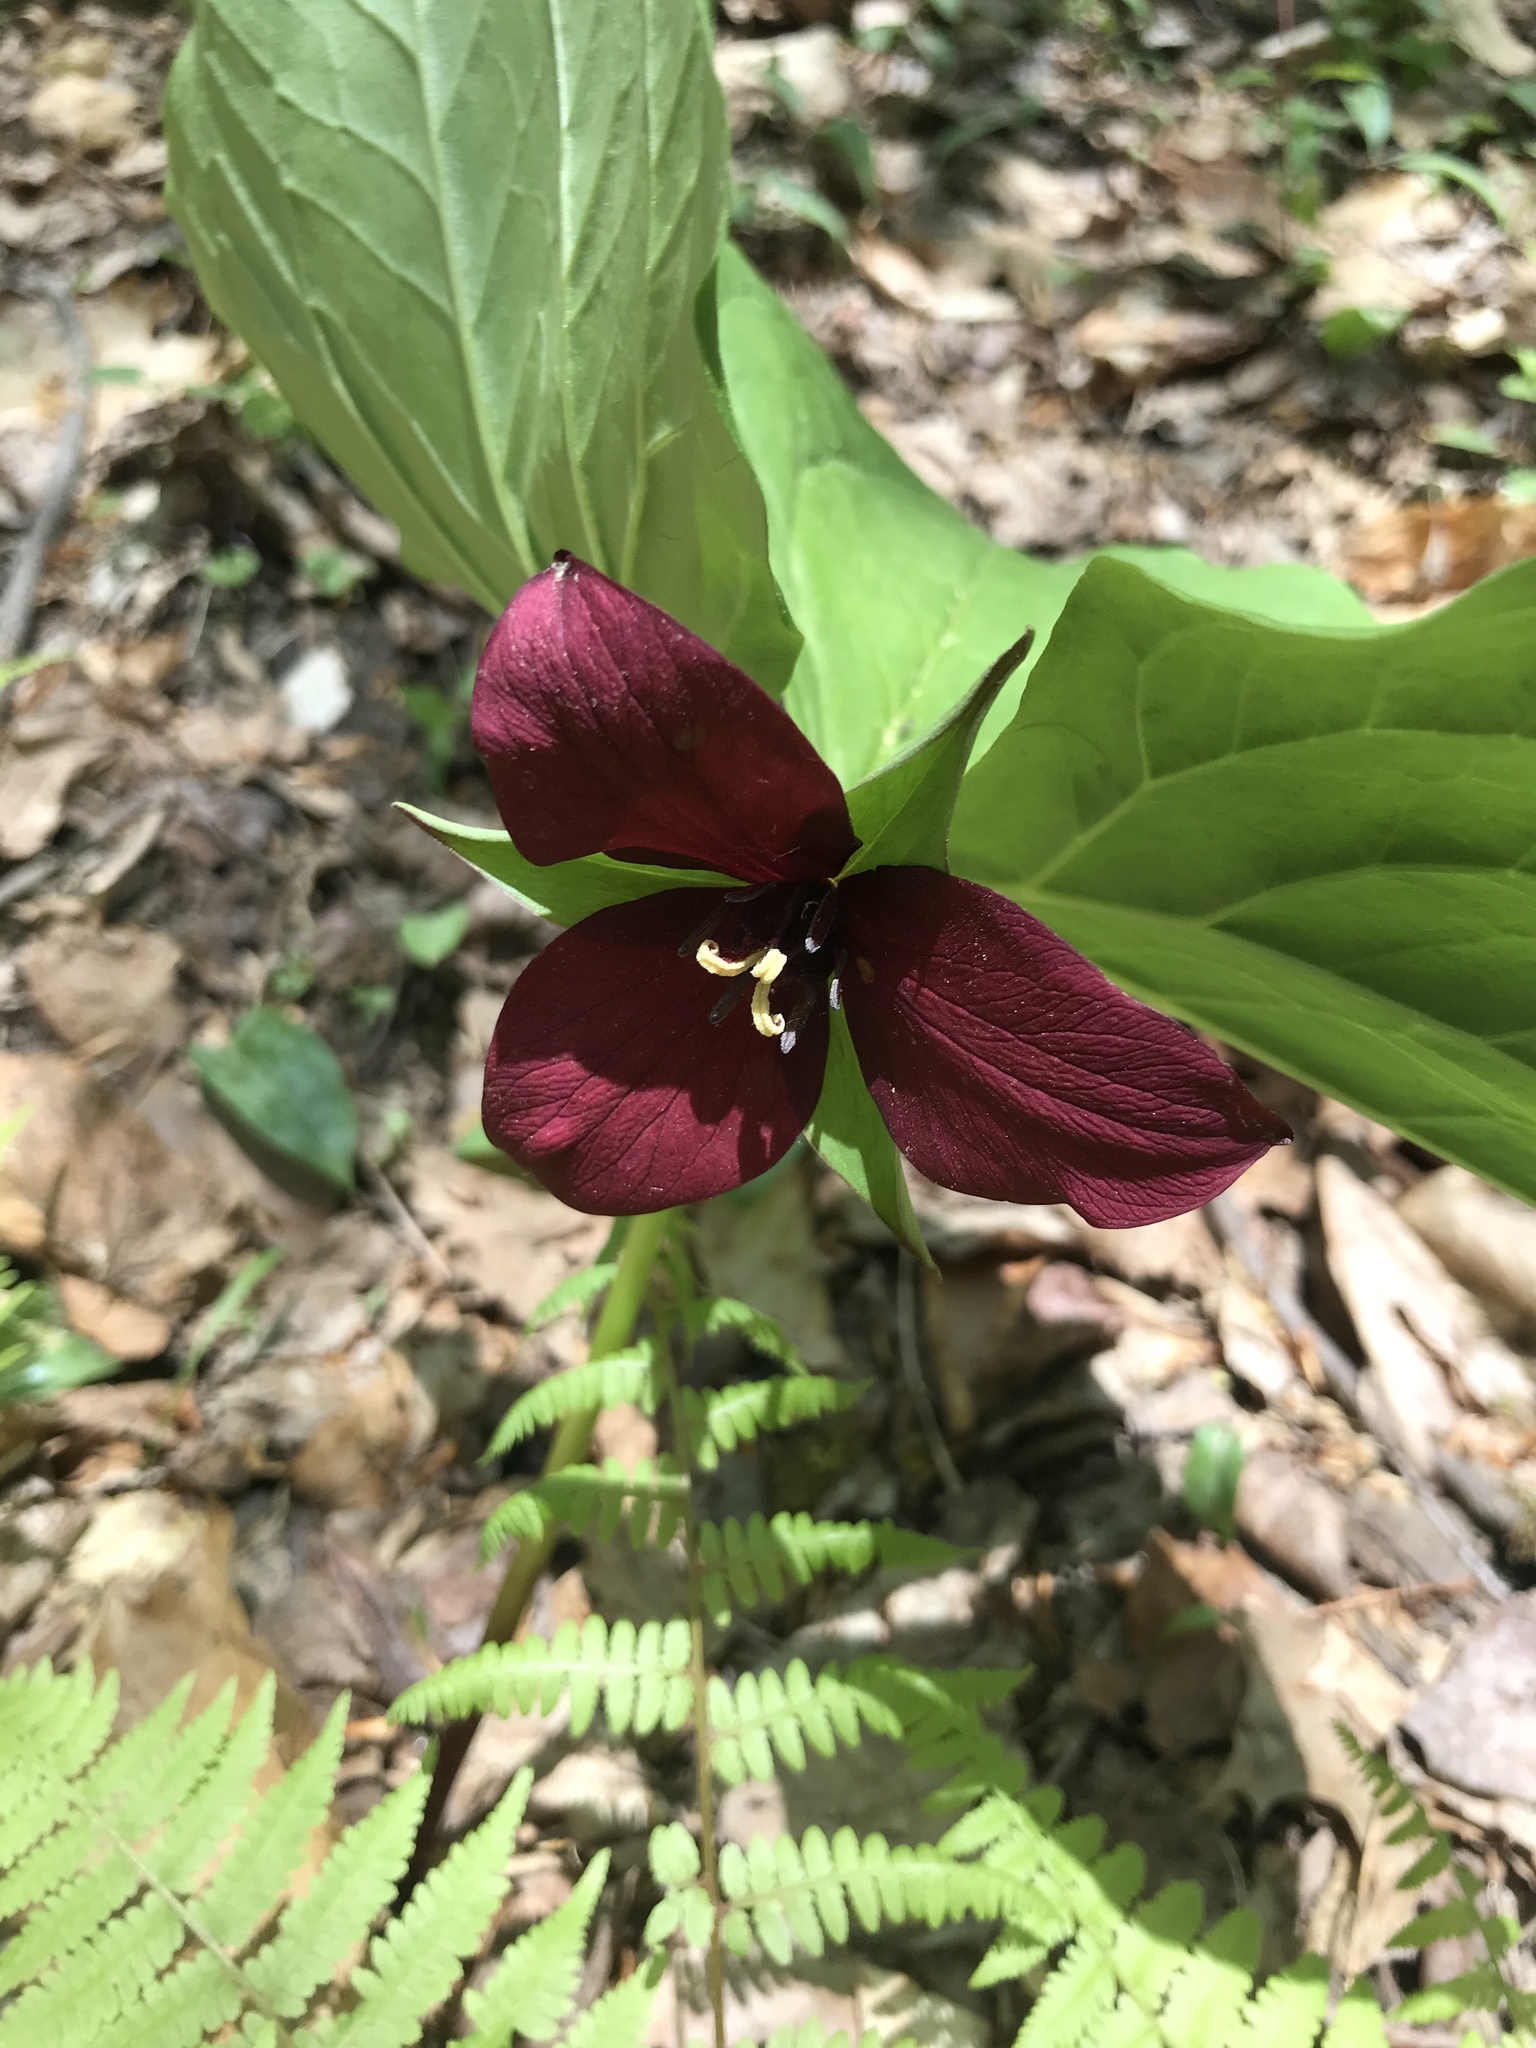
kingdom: Plantae
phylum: Tracheophyta
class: Liliopsida
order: Liliales
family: Melanthiaceae
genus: Trillium
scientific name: Trillium erectum
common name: Purple trillium
